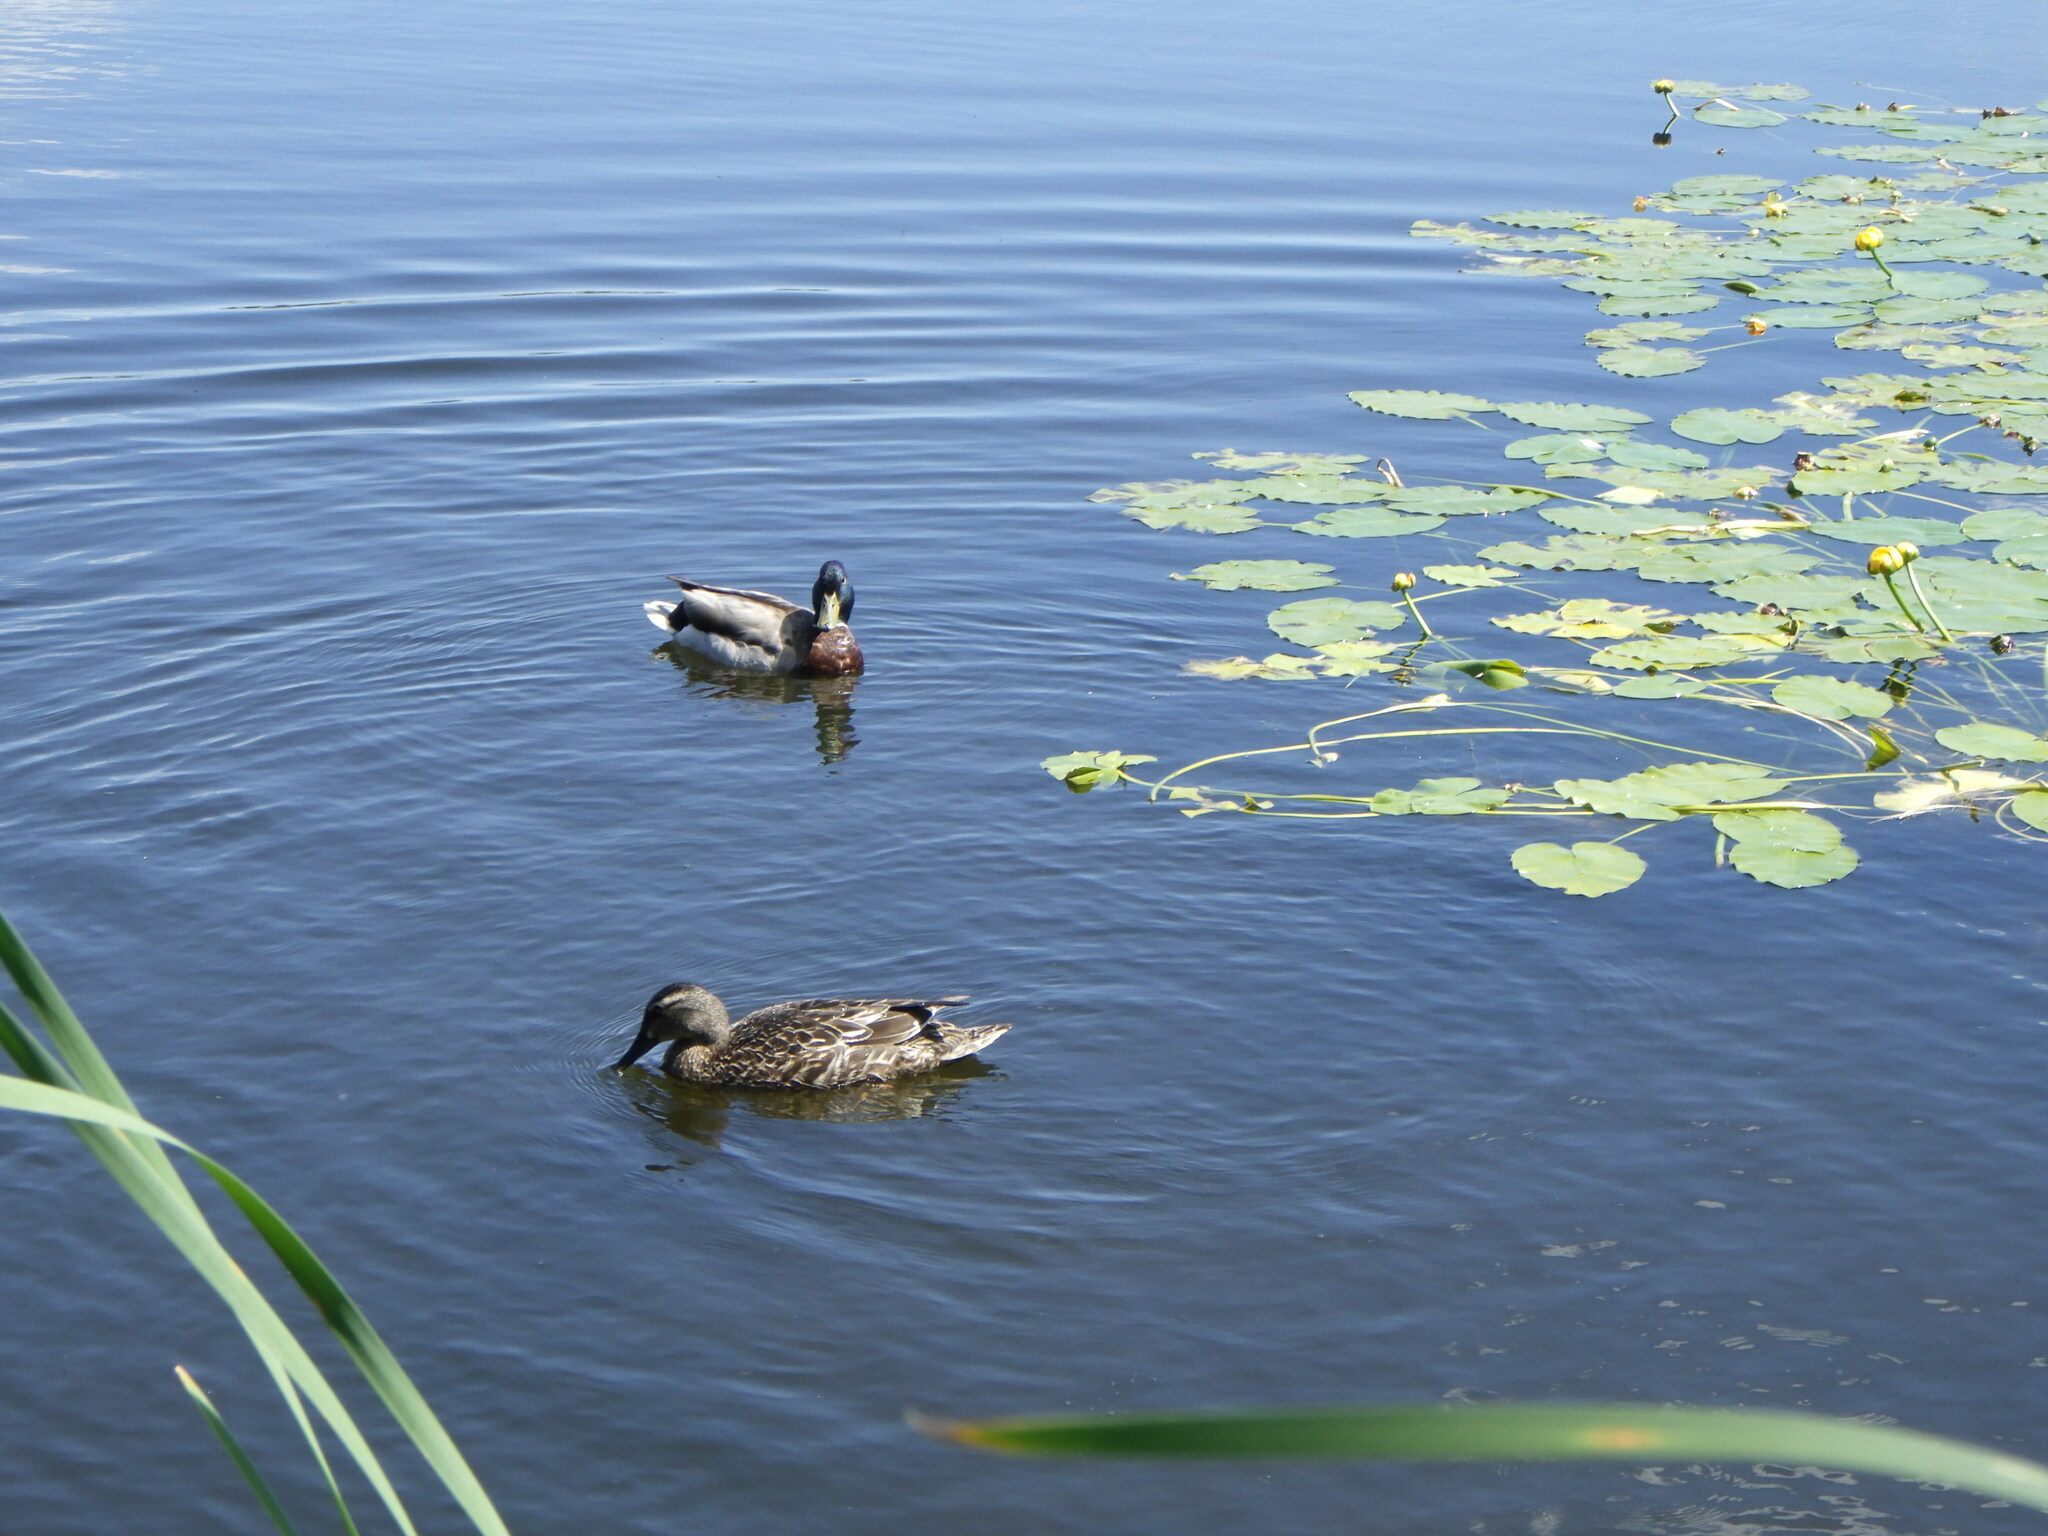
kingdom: Animalia
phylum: Chordata
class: Aves
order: Anseriformes
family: Anatidae
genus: Anas
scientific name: Anas platyrhynchos
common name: Mallard
